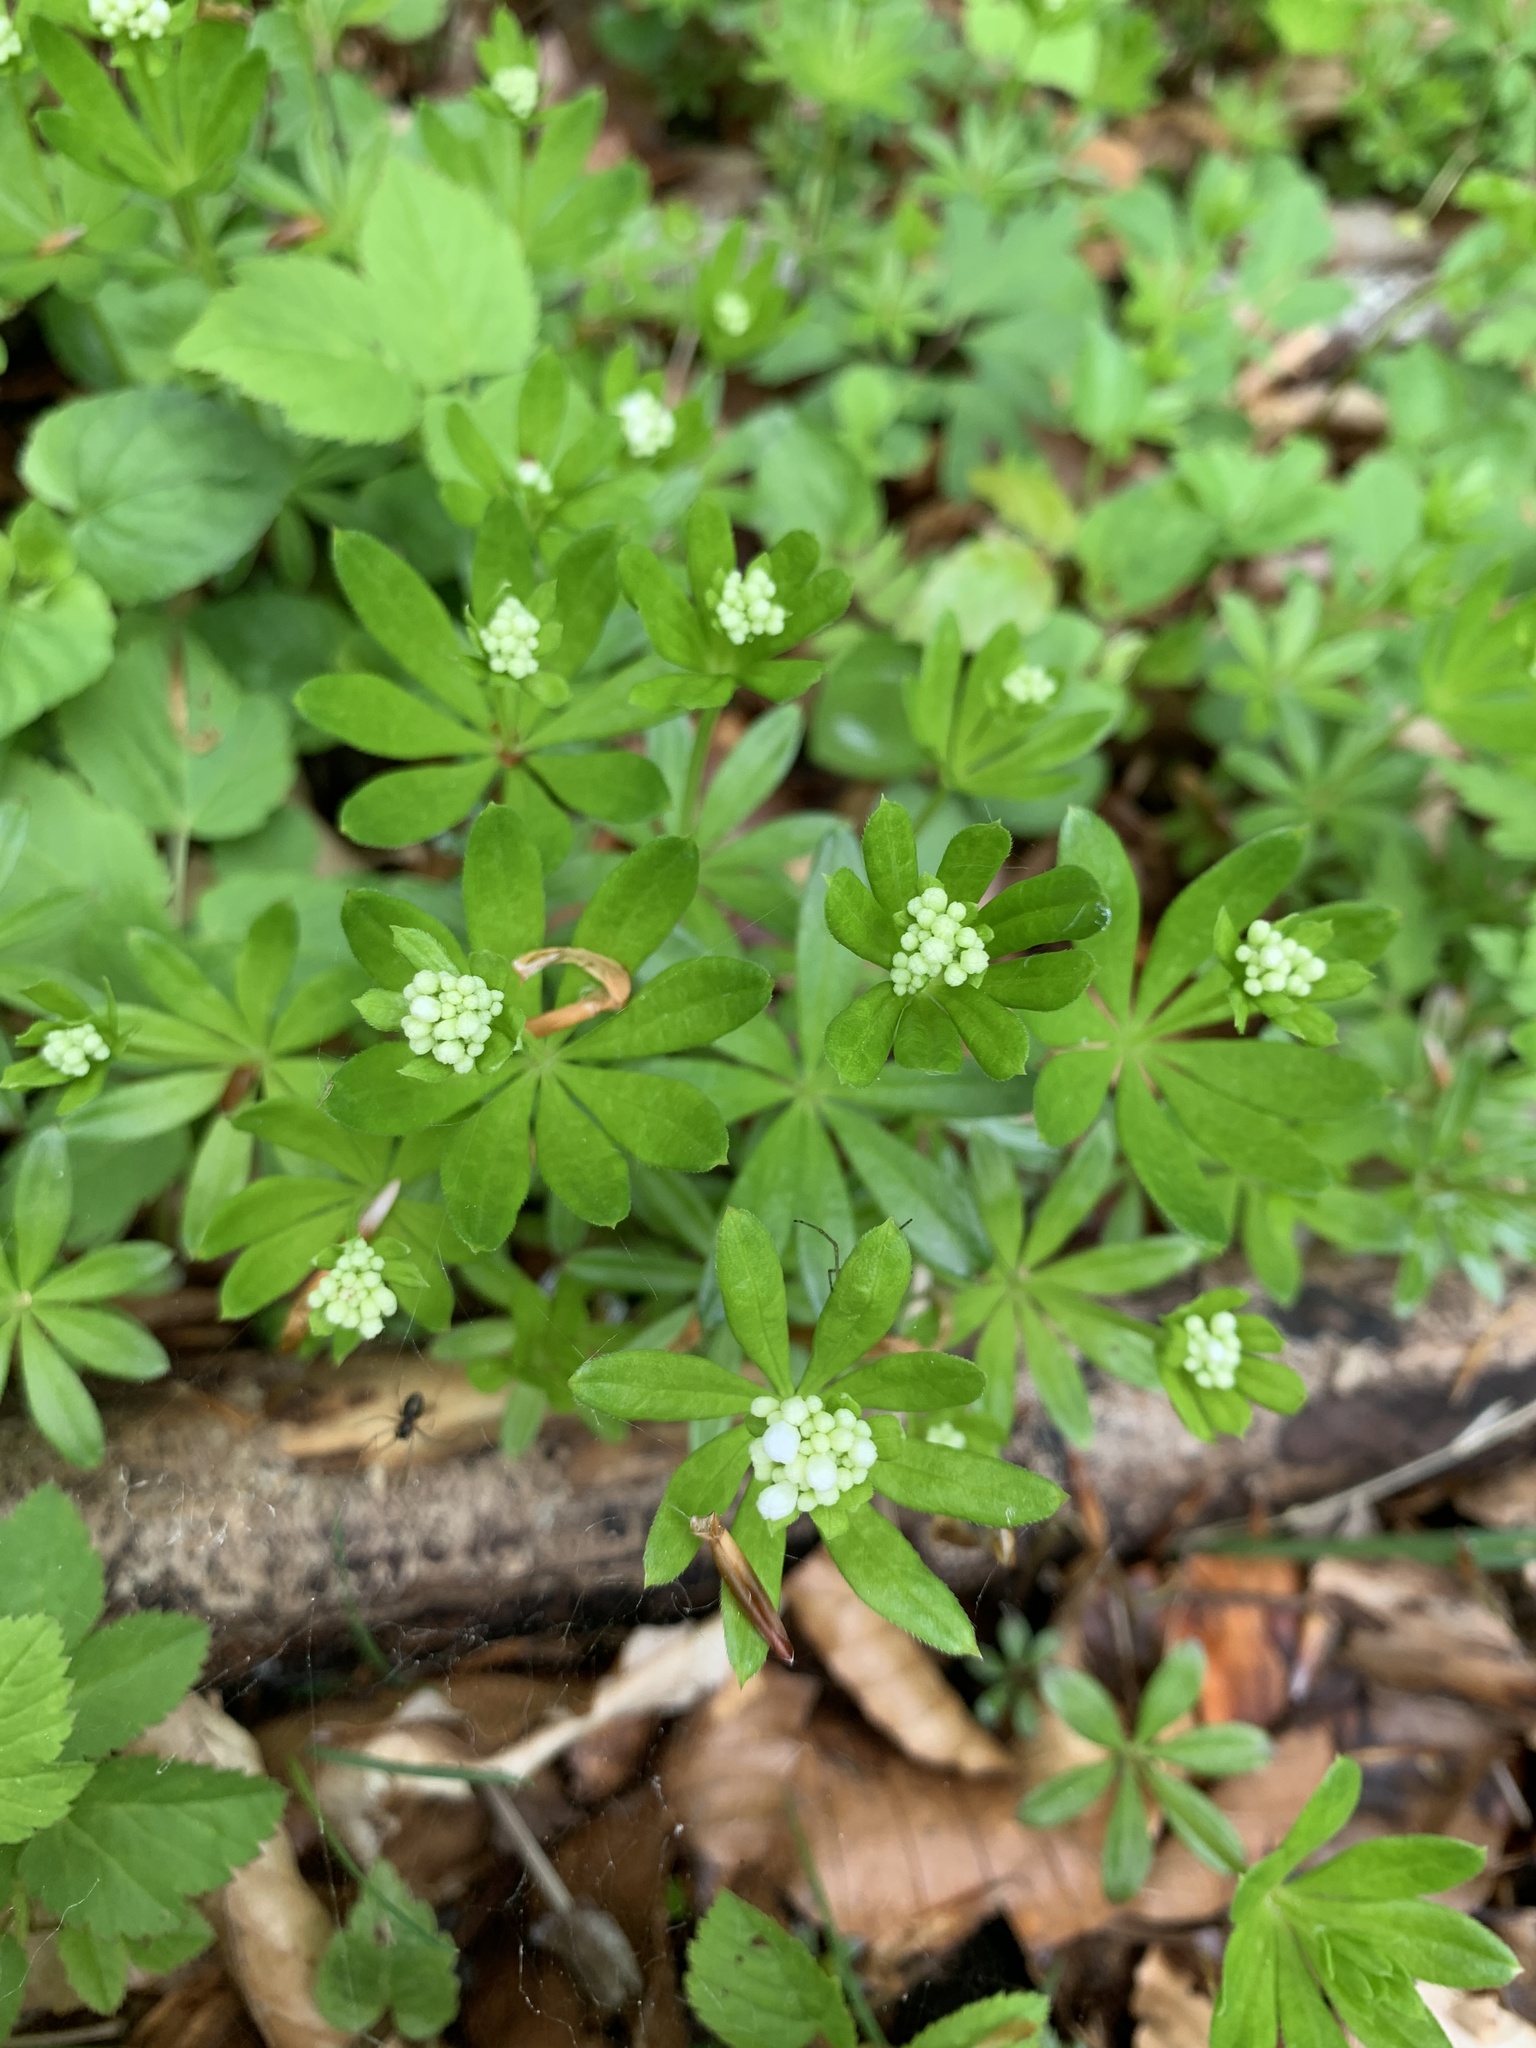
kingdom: Plantae
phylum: Tracheophyta
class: Magnoliopsida
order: Gentianales
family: Rubiaceae
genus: Galium
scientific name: Galium odoratum
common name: Sweet woodruff
